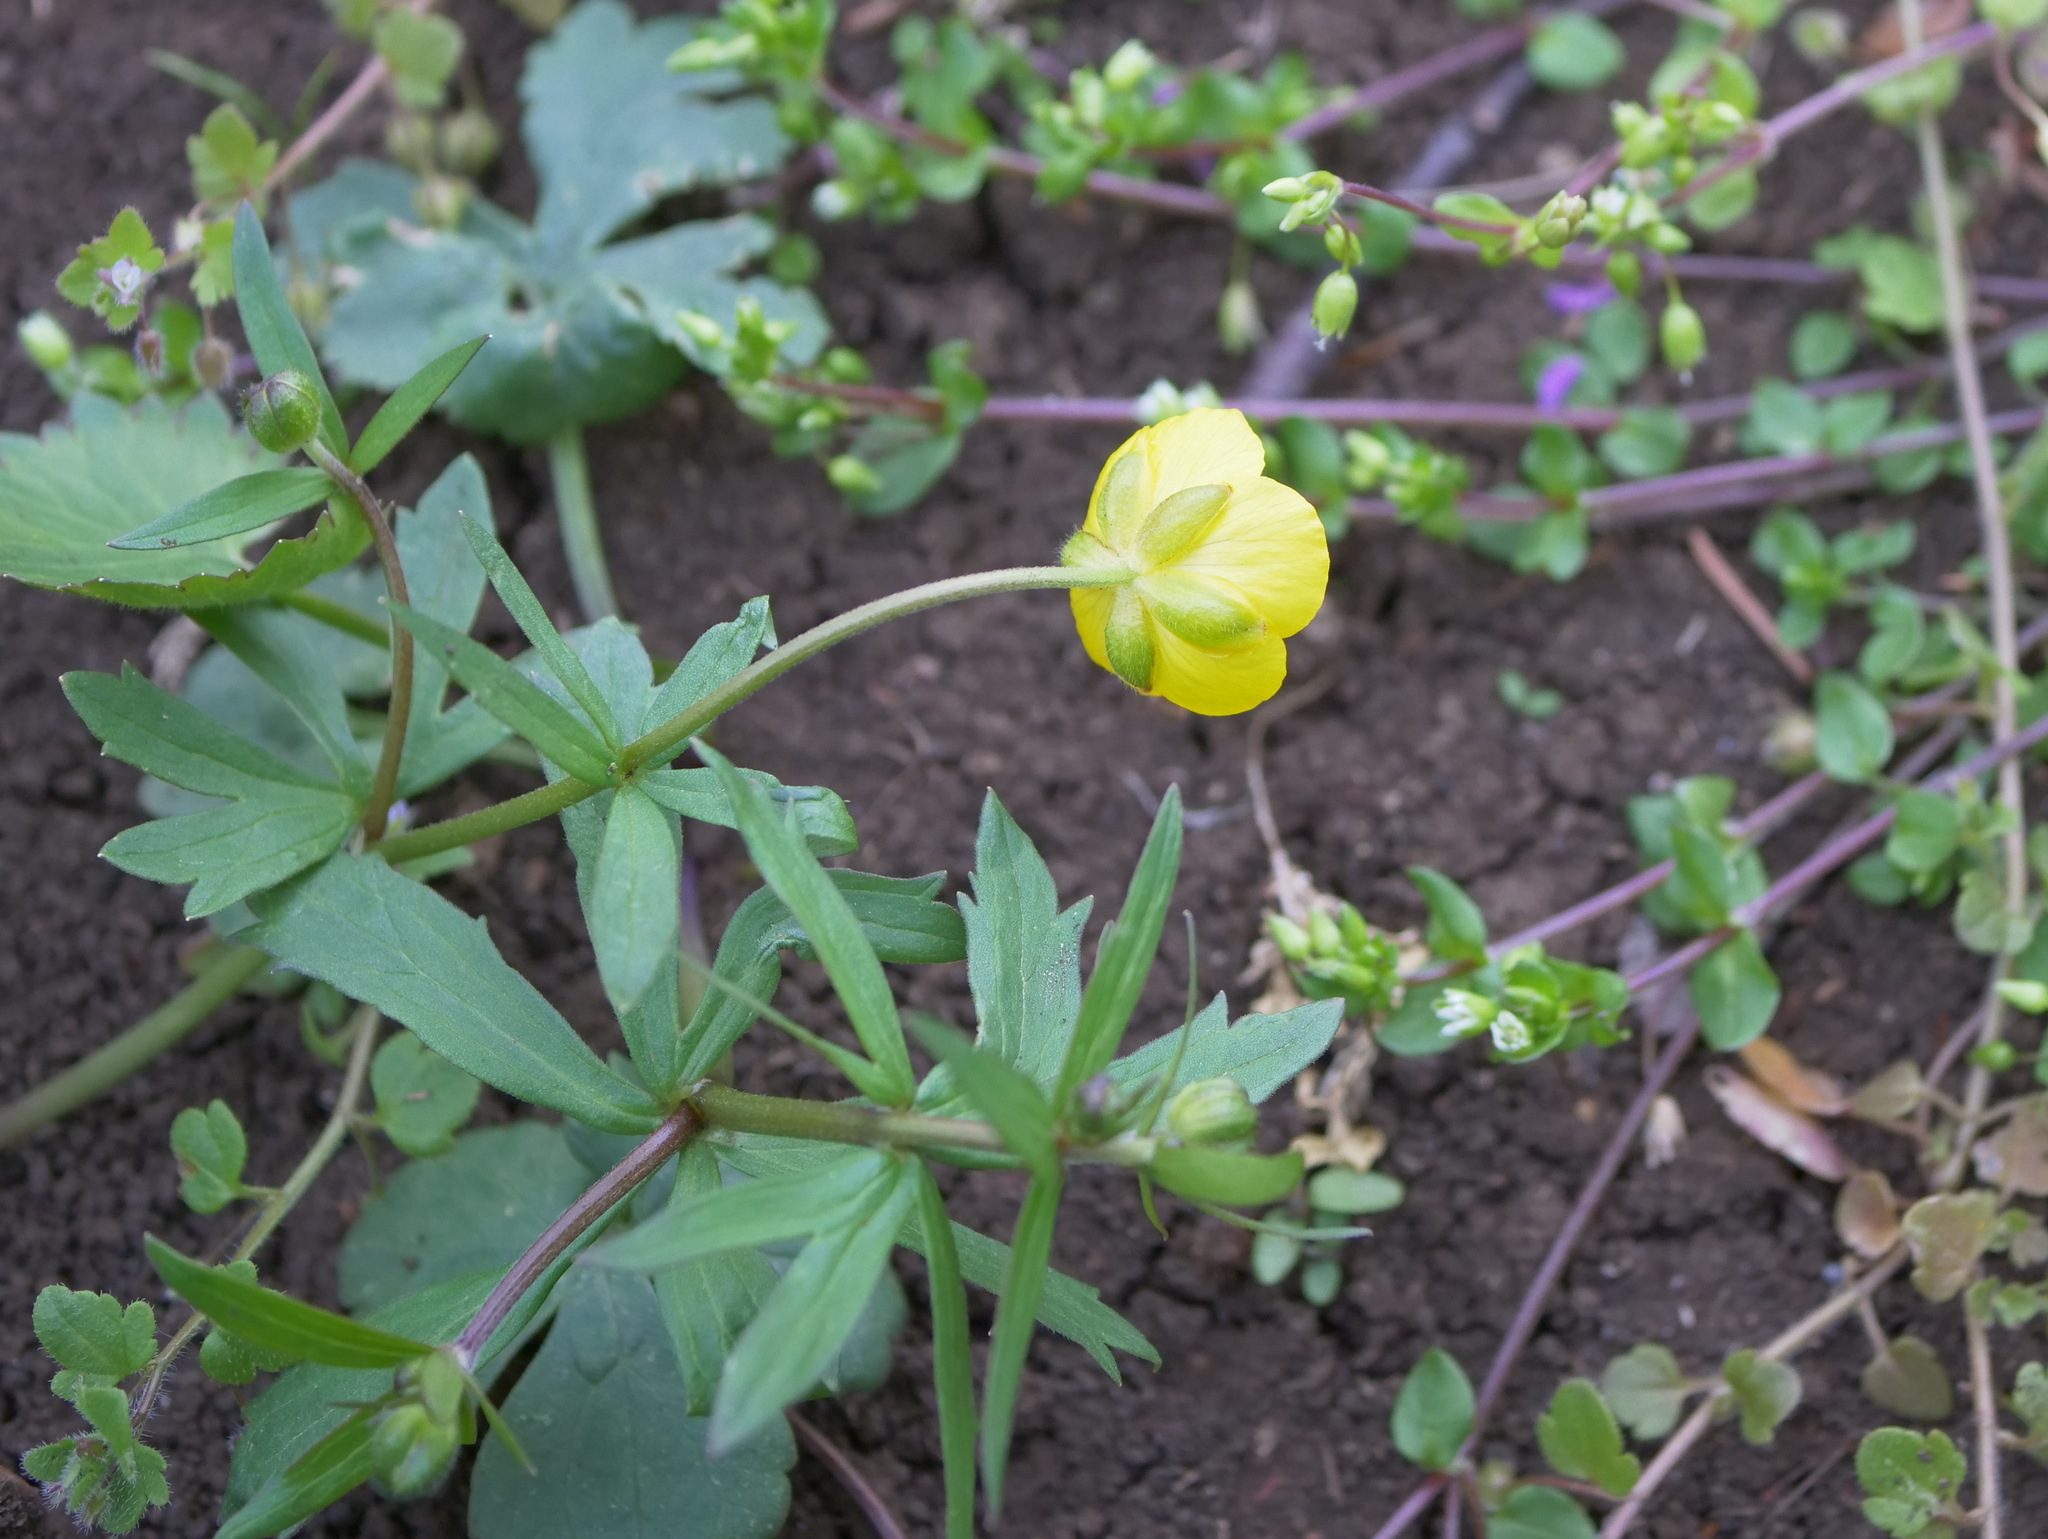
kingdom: Plantae
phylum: Tracheophyta
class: Magnoliopsida
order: Ranunculales
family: Ranunculaceae
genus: Ranunculus
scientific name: Ranunculus auricomus
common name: Goldilocks buttercup
